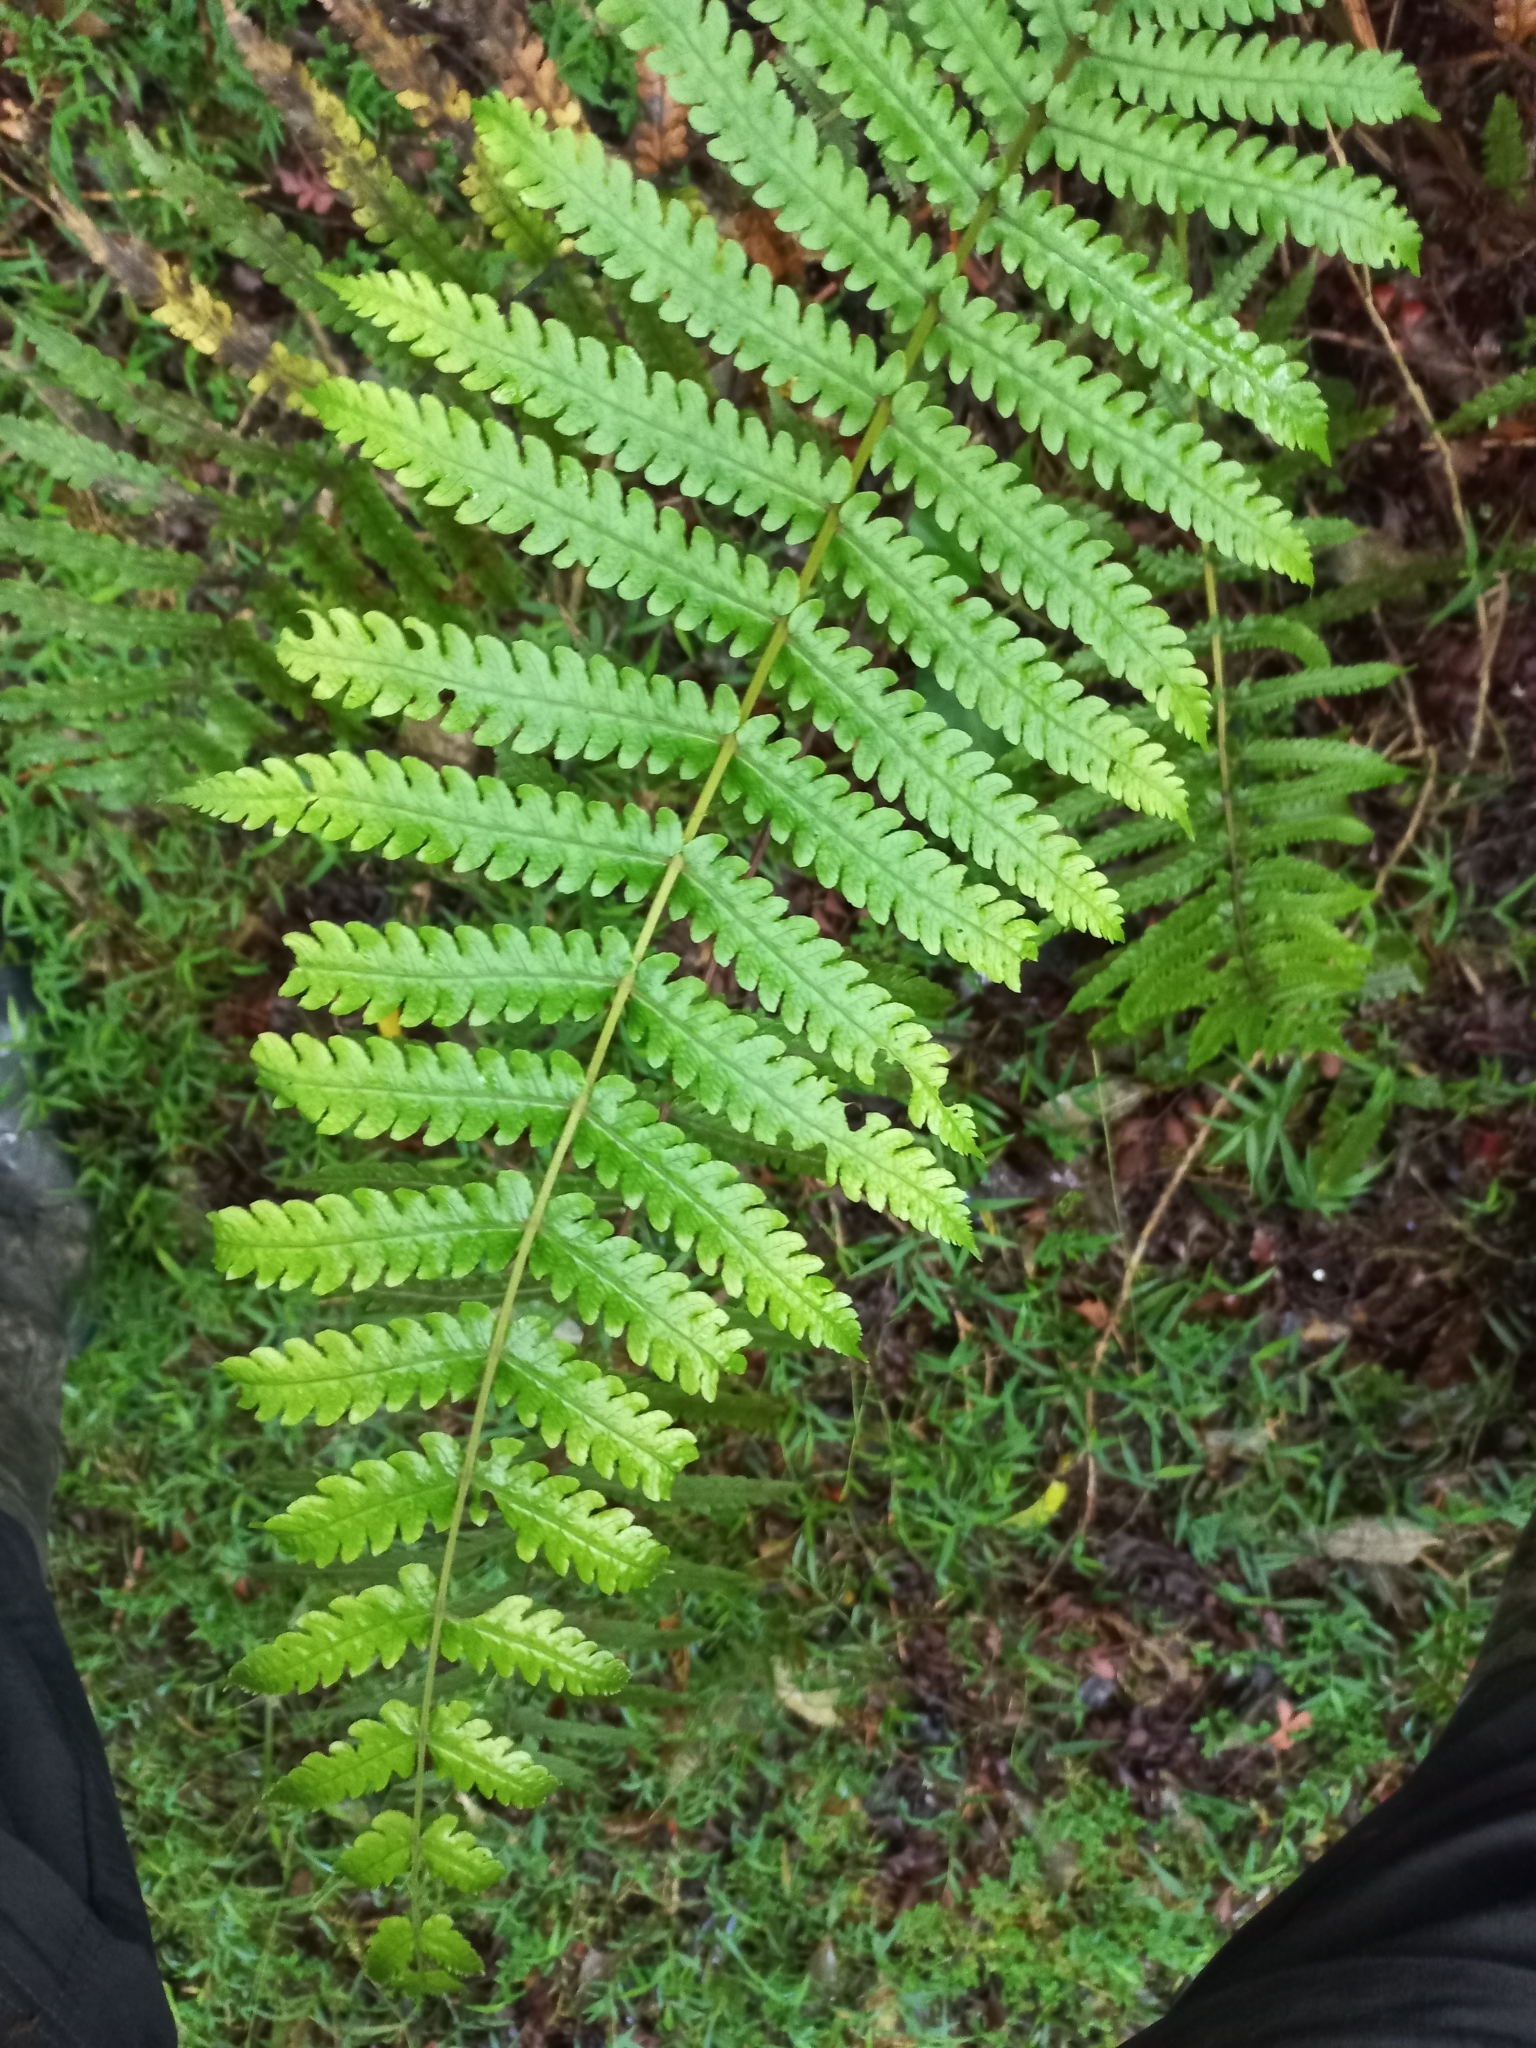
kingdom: Plantae
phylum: Tracheophyta
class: Polypodiopsida
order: Polypodiales
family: Thelypteridaceae
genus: Pakau
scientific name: Pakau pennigera
